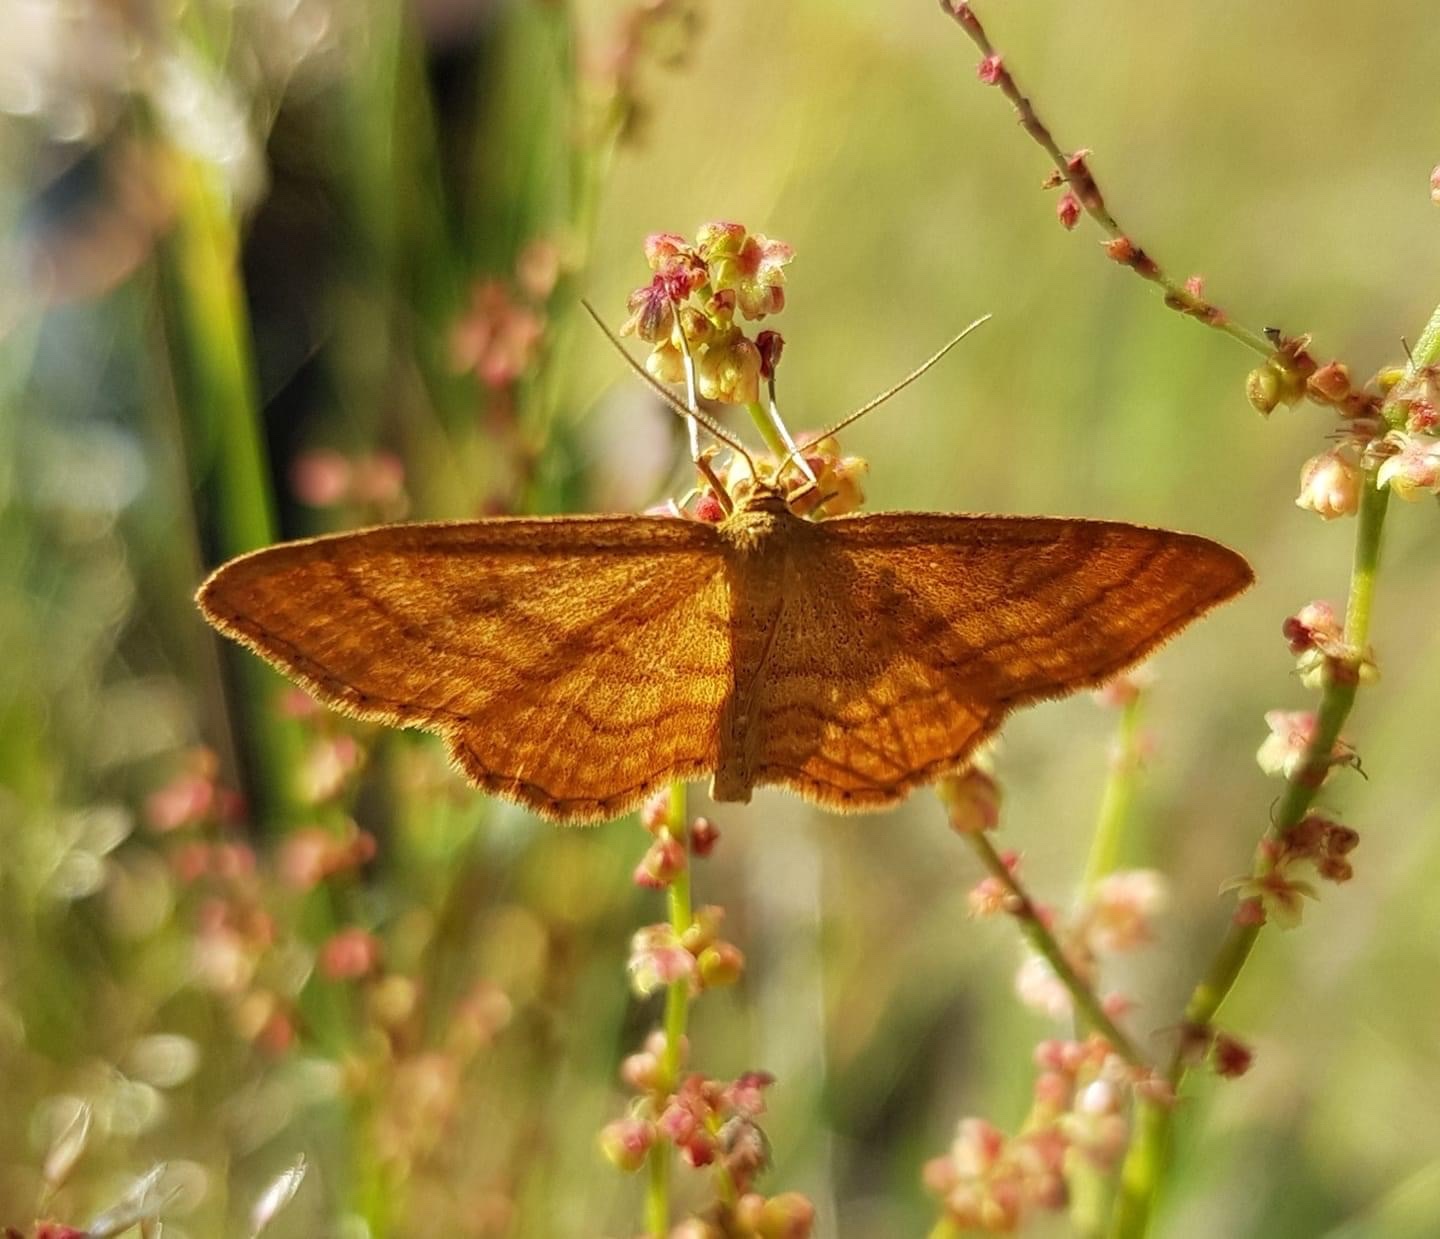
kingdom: Animalia
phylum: Arthropoda
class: Insecta
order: Lepidoptera
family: Geometridae
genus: Idaea
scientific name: Idaea ochrata
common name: Bright wave
